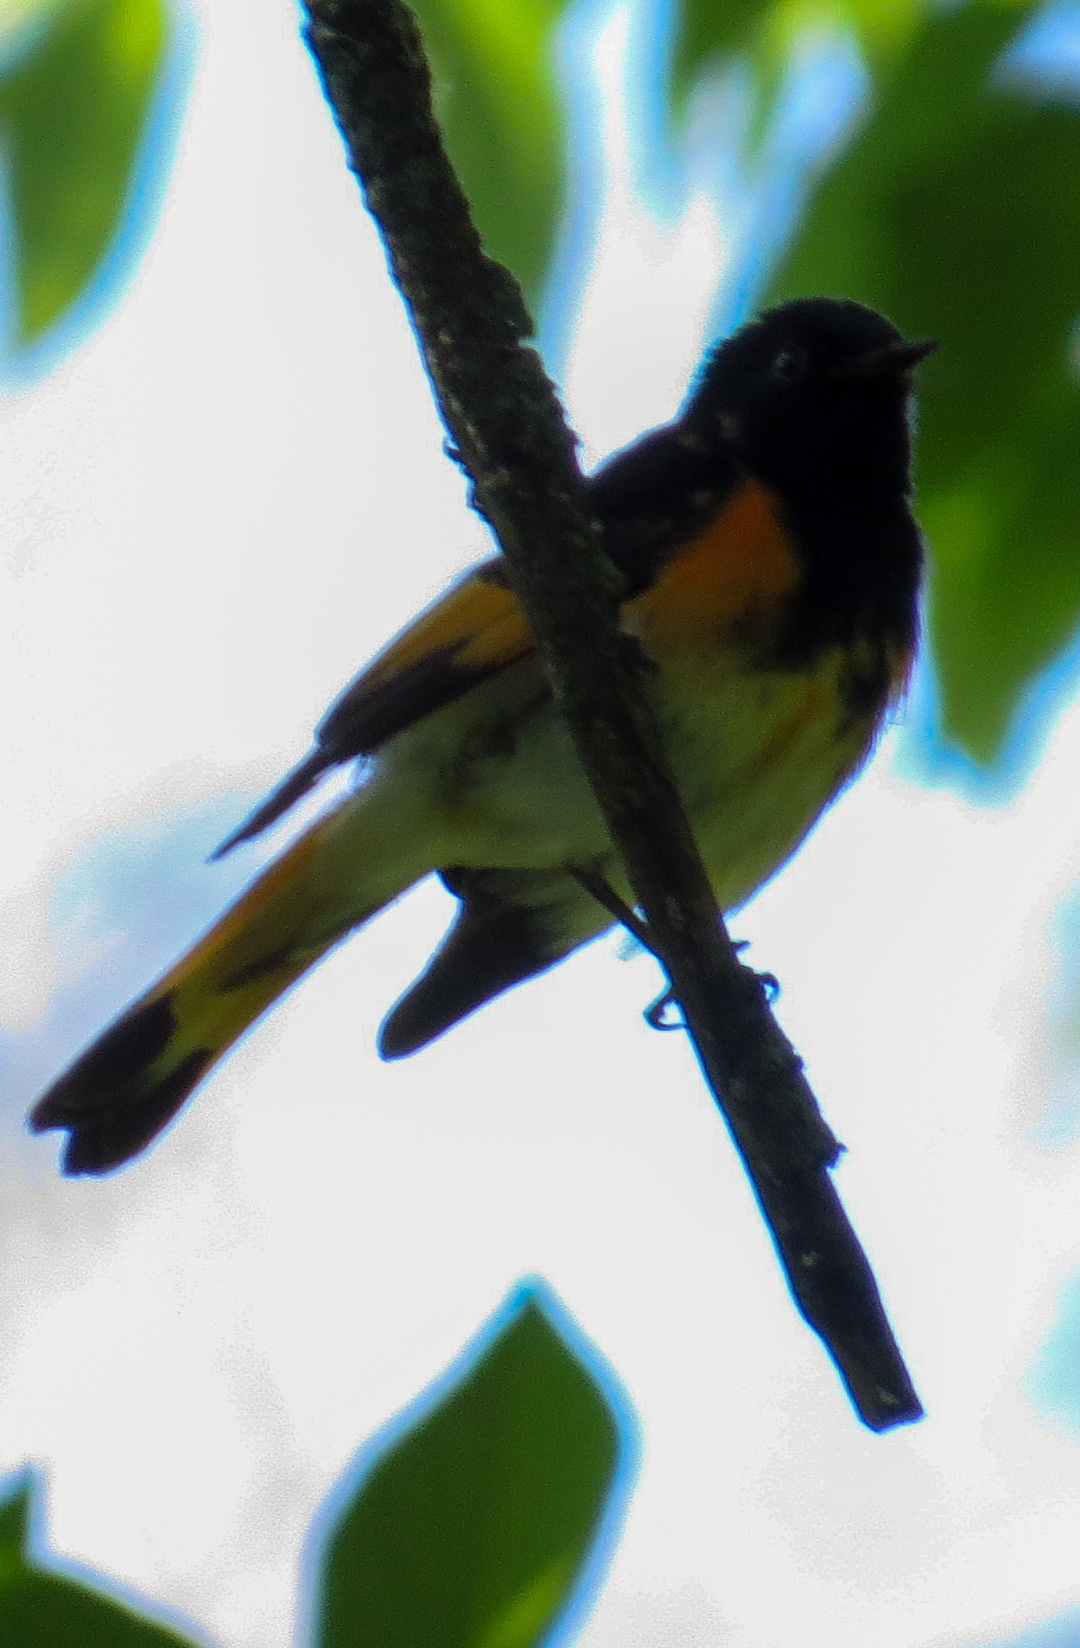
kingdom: Animalia
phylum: Chordata
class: Aves
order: Passeriformes
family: Parulidae
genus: Setophaga
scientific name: Setophaga ruticilla
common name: American redstart
